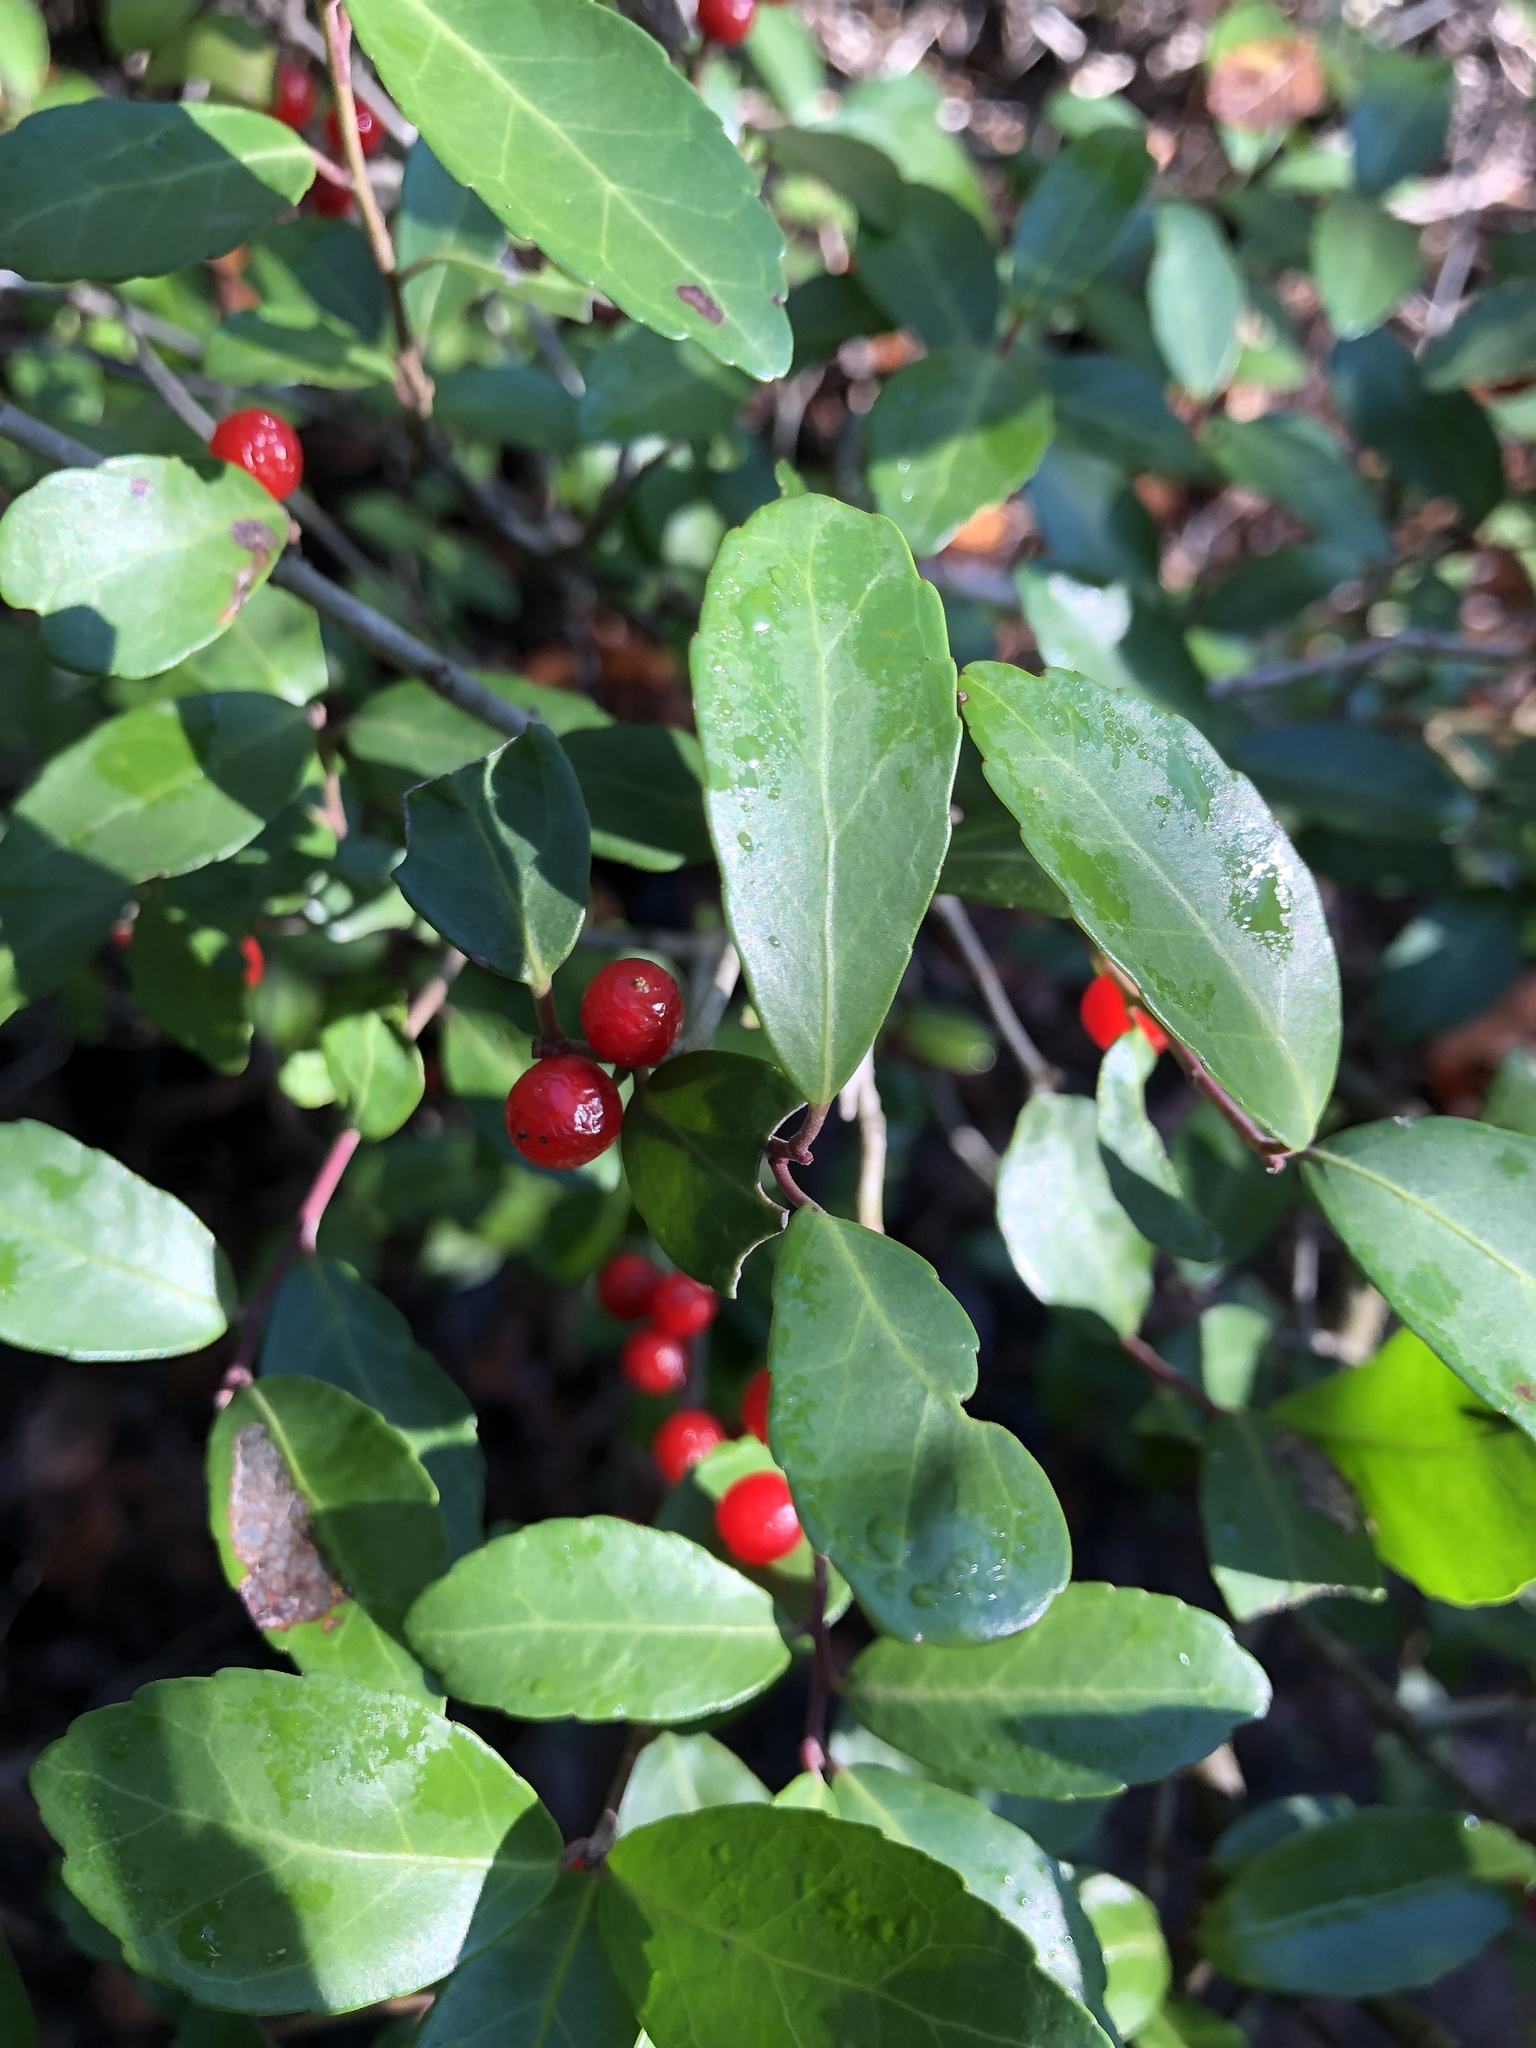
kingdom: Plantae
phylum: Tracheophyta
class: Magnoliopsida
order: Aquifoliales
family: Aquifoliaceae
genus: Ilex
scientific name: Ilex vomitoria
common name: Yaupon holly
